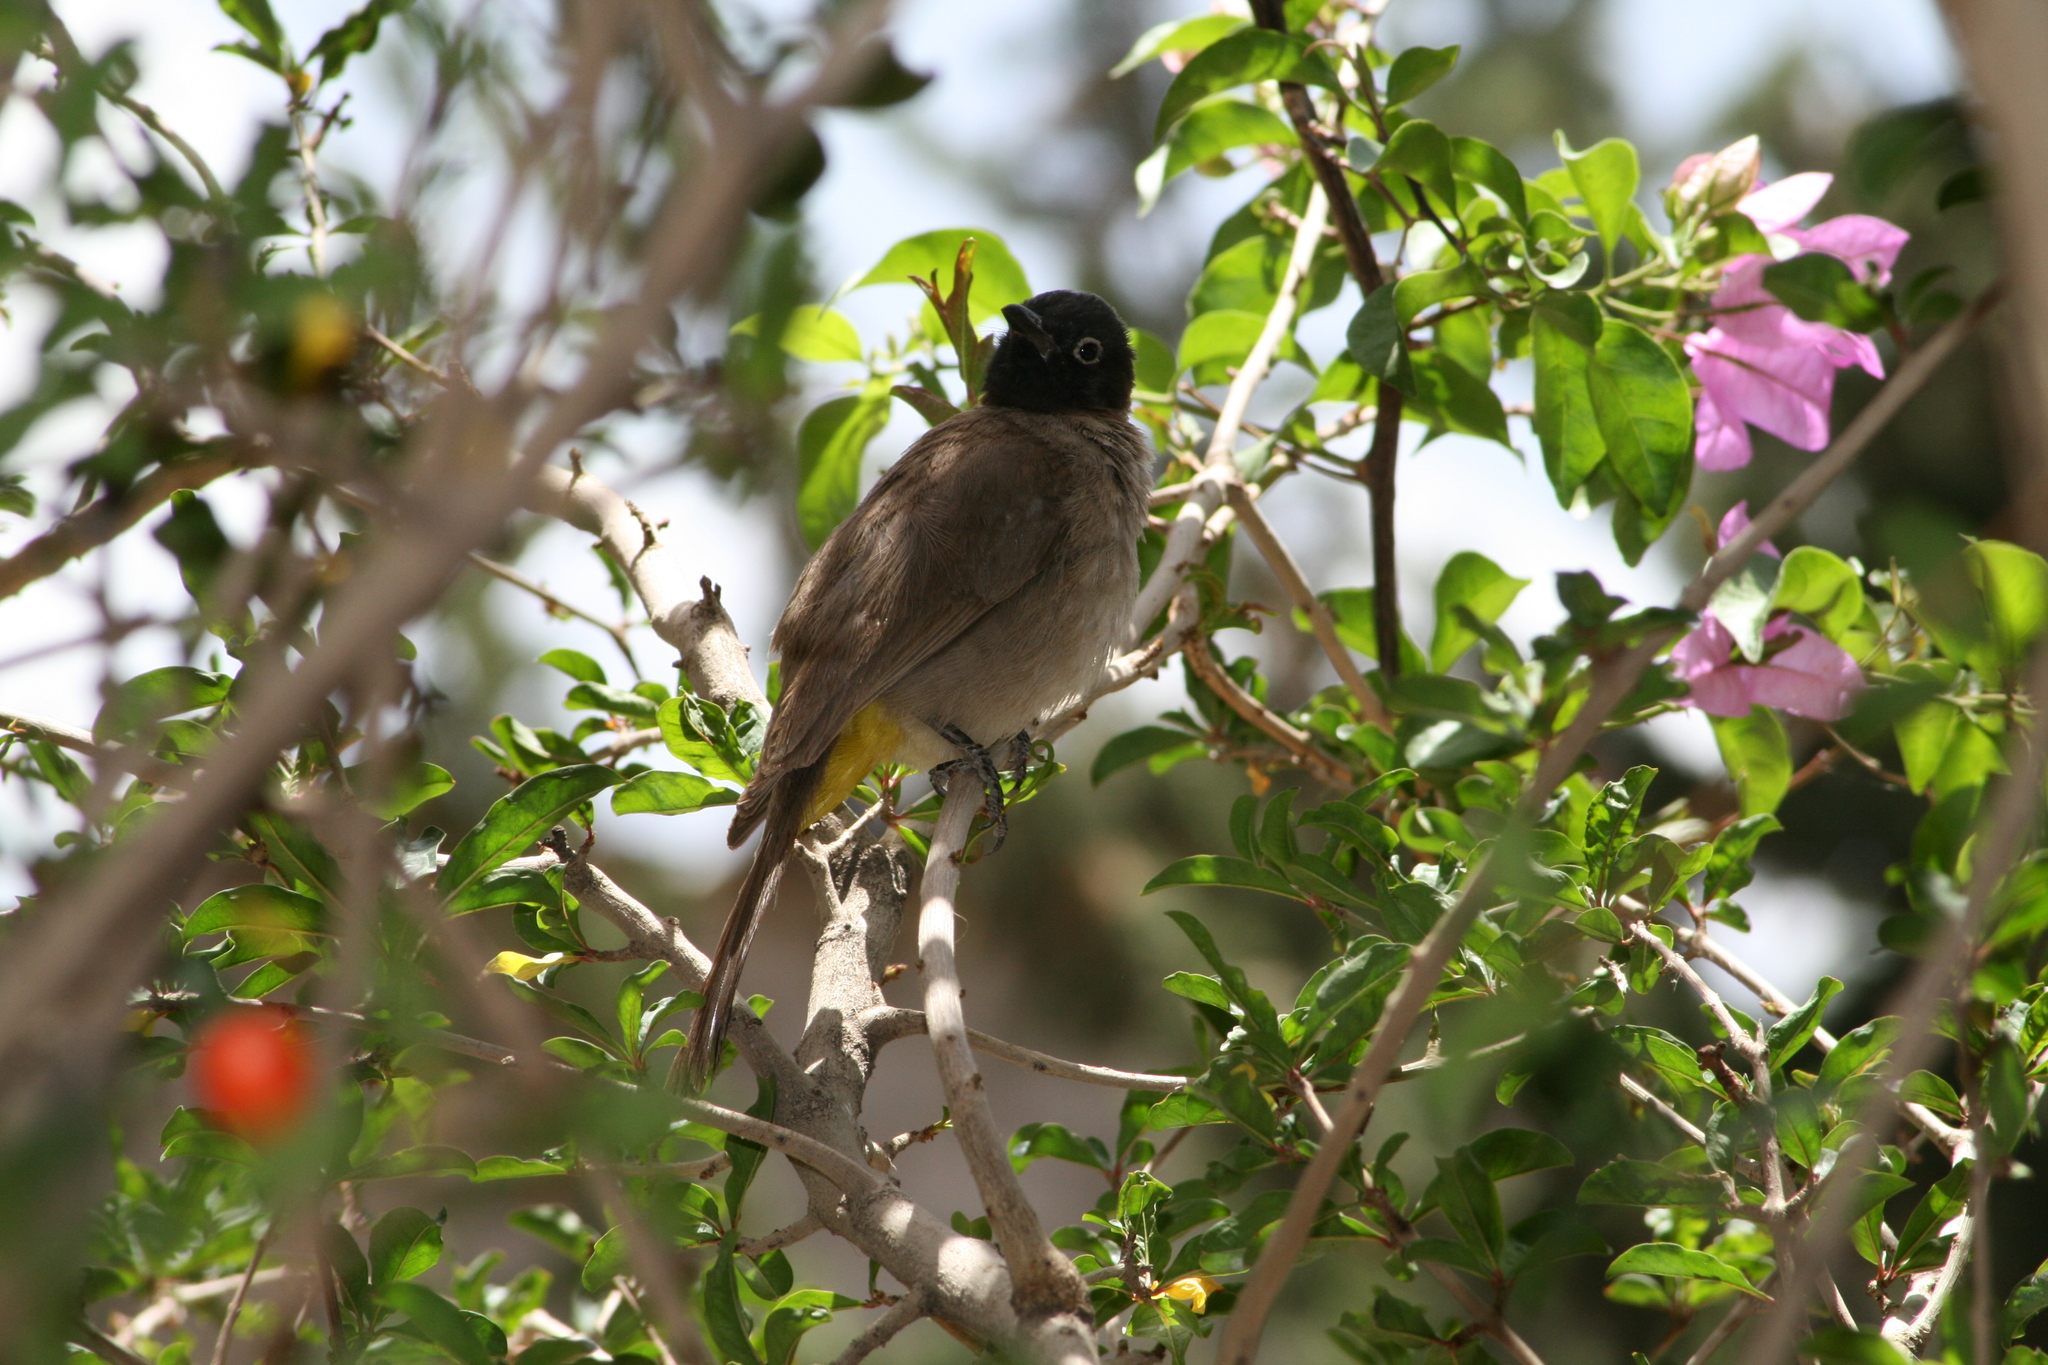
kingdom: Animalia
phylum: Chordata
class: Aves
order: Passeriformes
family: Pycnonotidae
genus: Pycnonotus
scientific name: Pycnonotus xanthopygos
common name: White-spectacled bulbul
